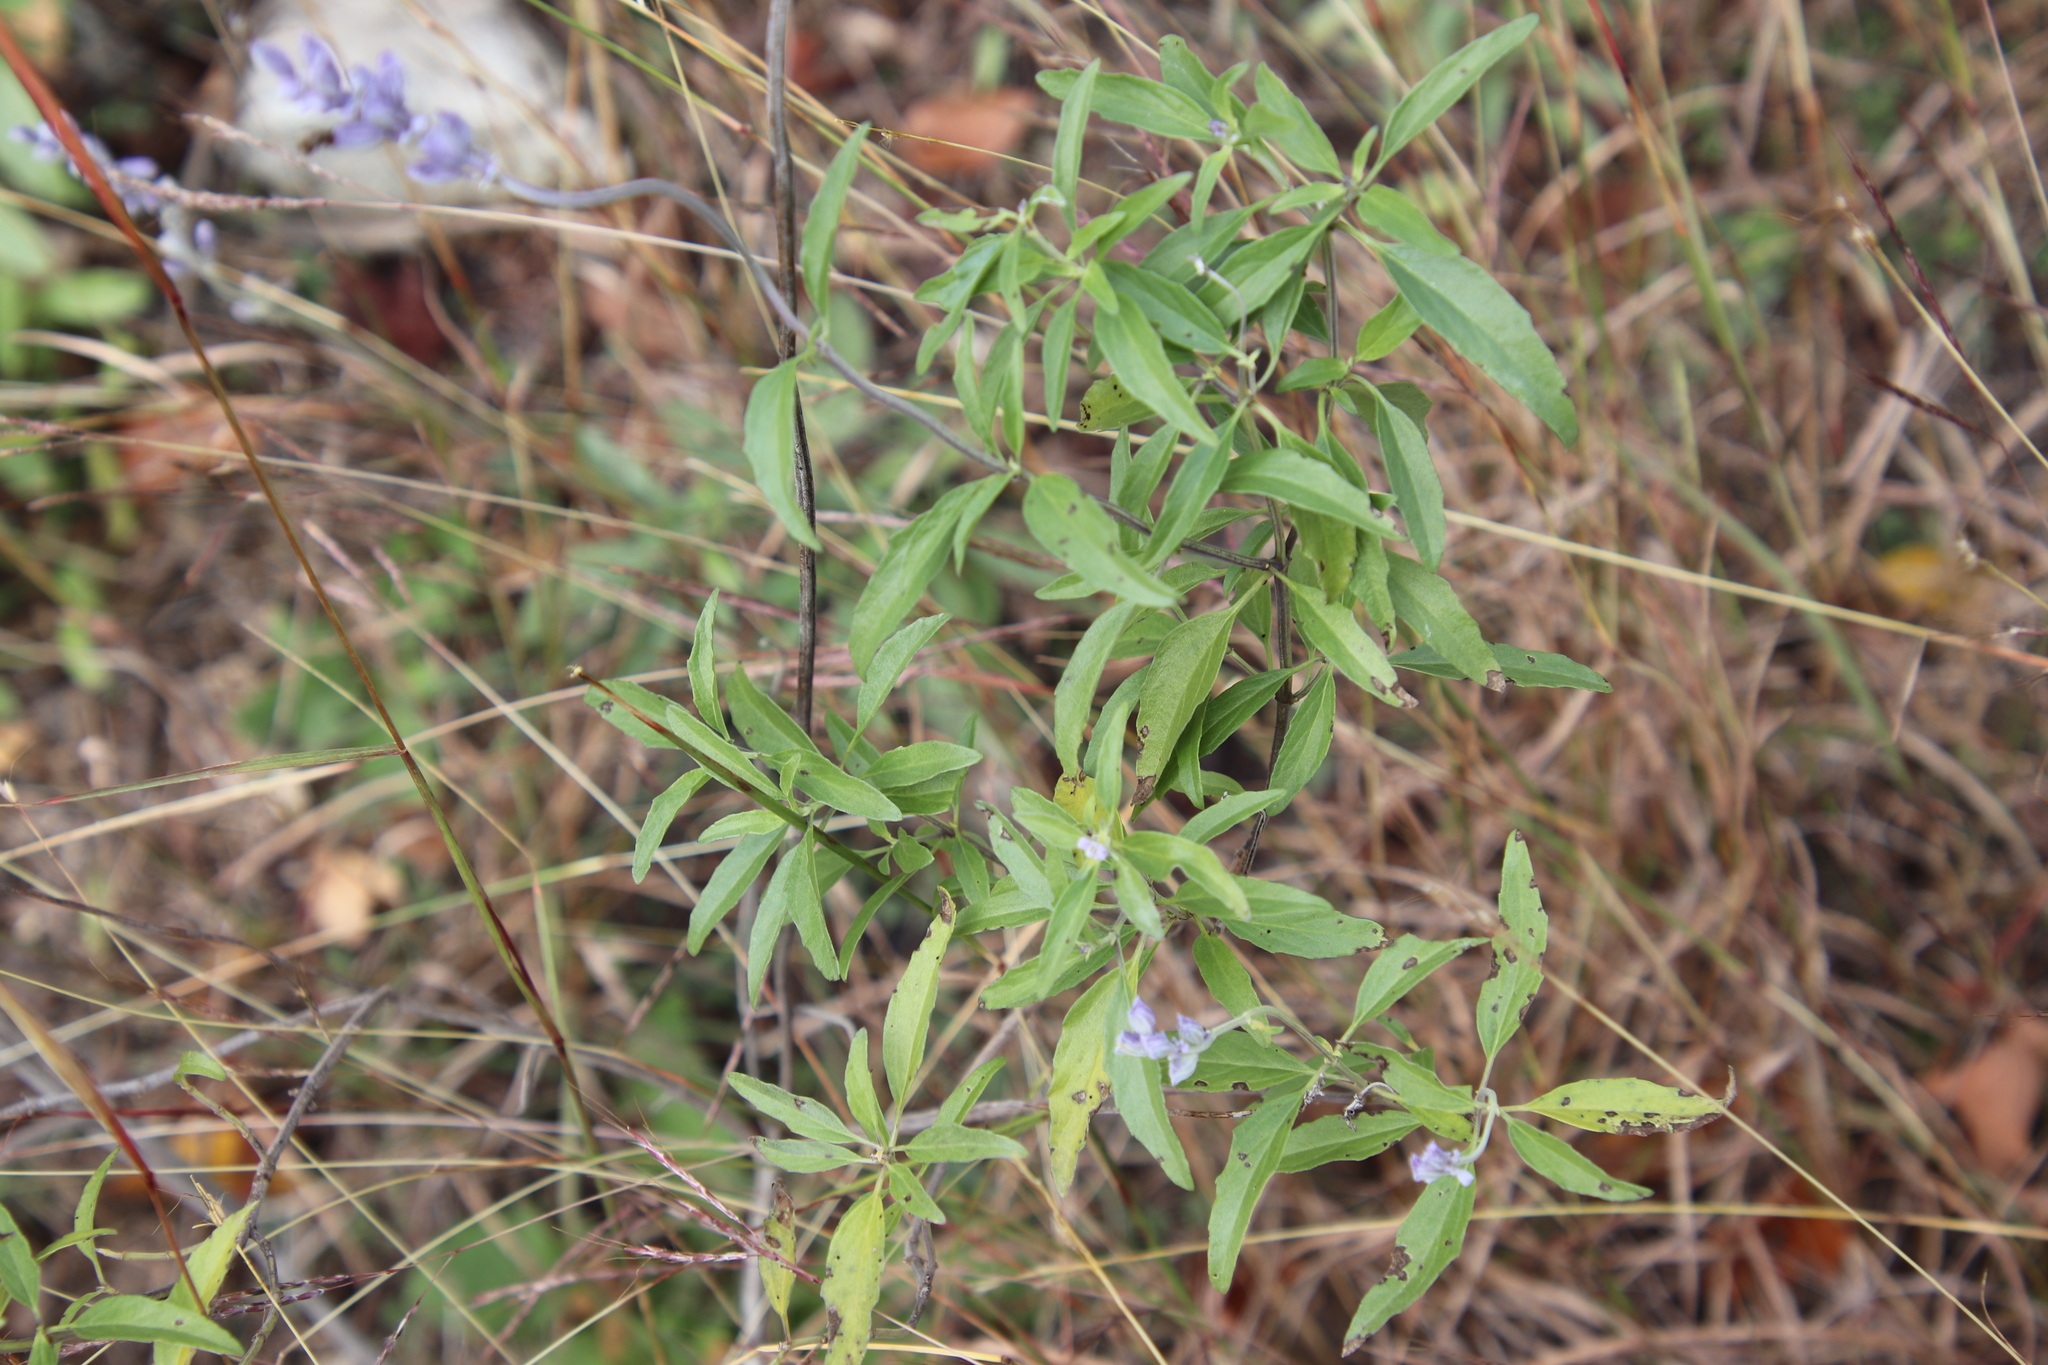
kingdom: Plantae
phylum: Tracheophyta
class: Magnoliopsida
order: Lamiales
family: Lamiaceae
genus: Salvia
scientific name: Salvia farinacea
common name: Mealy sage
